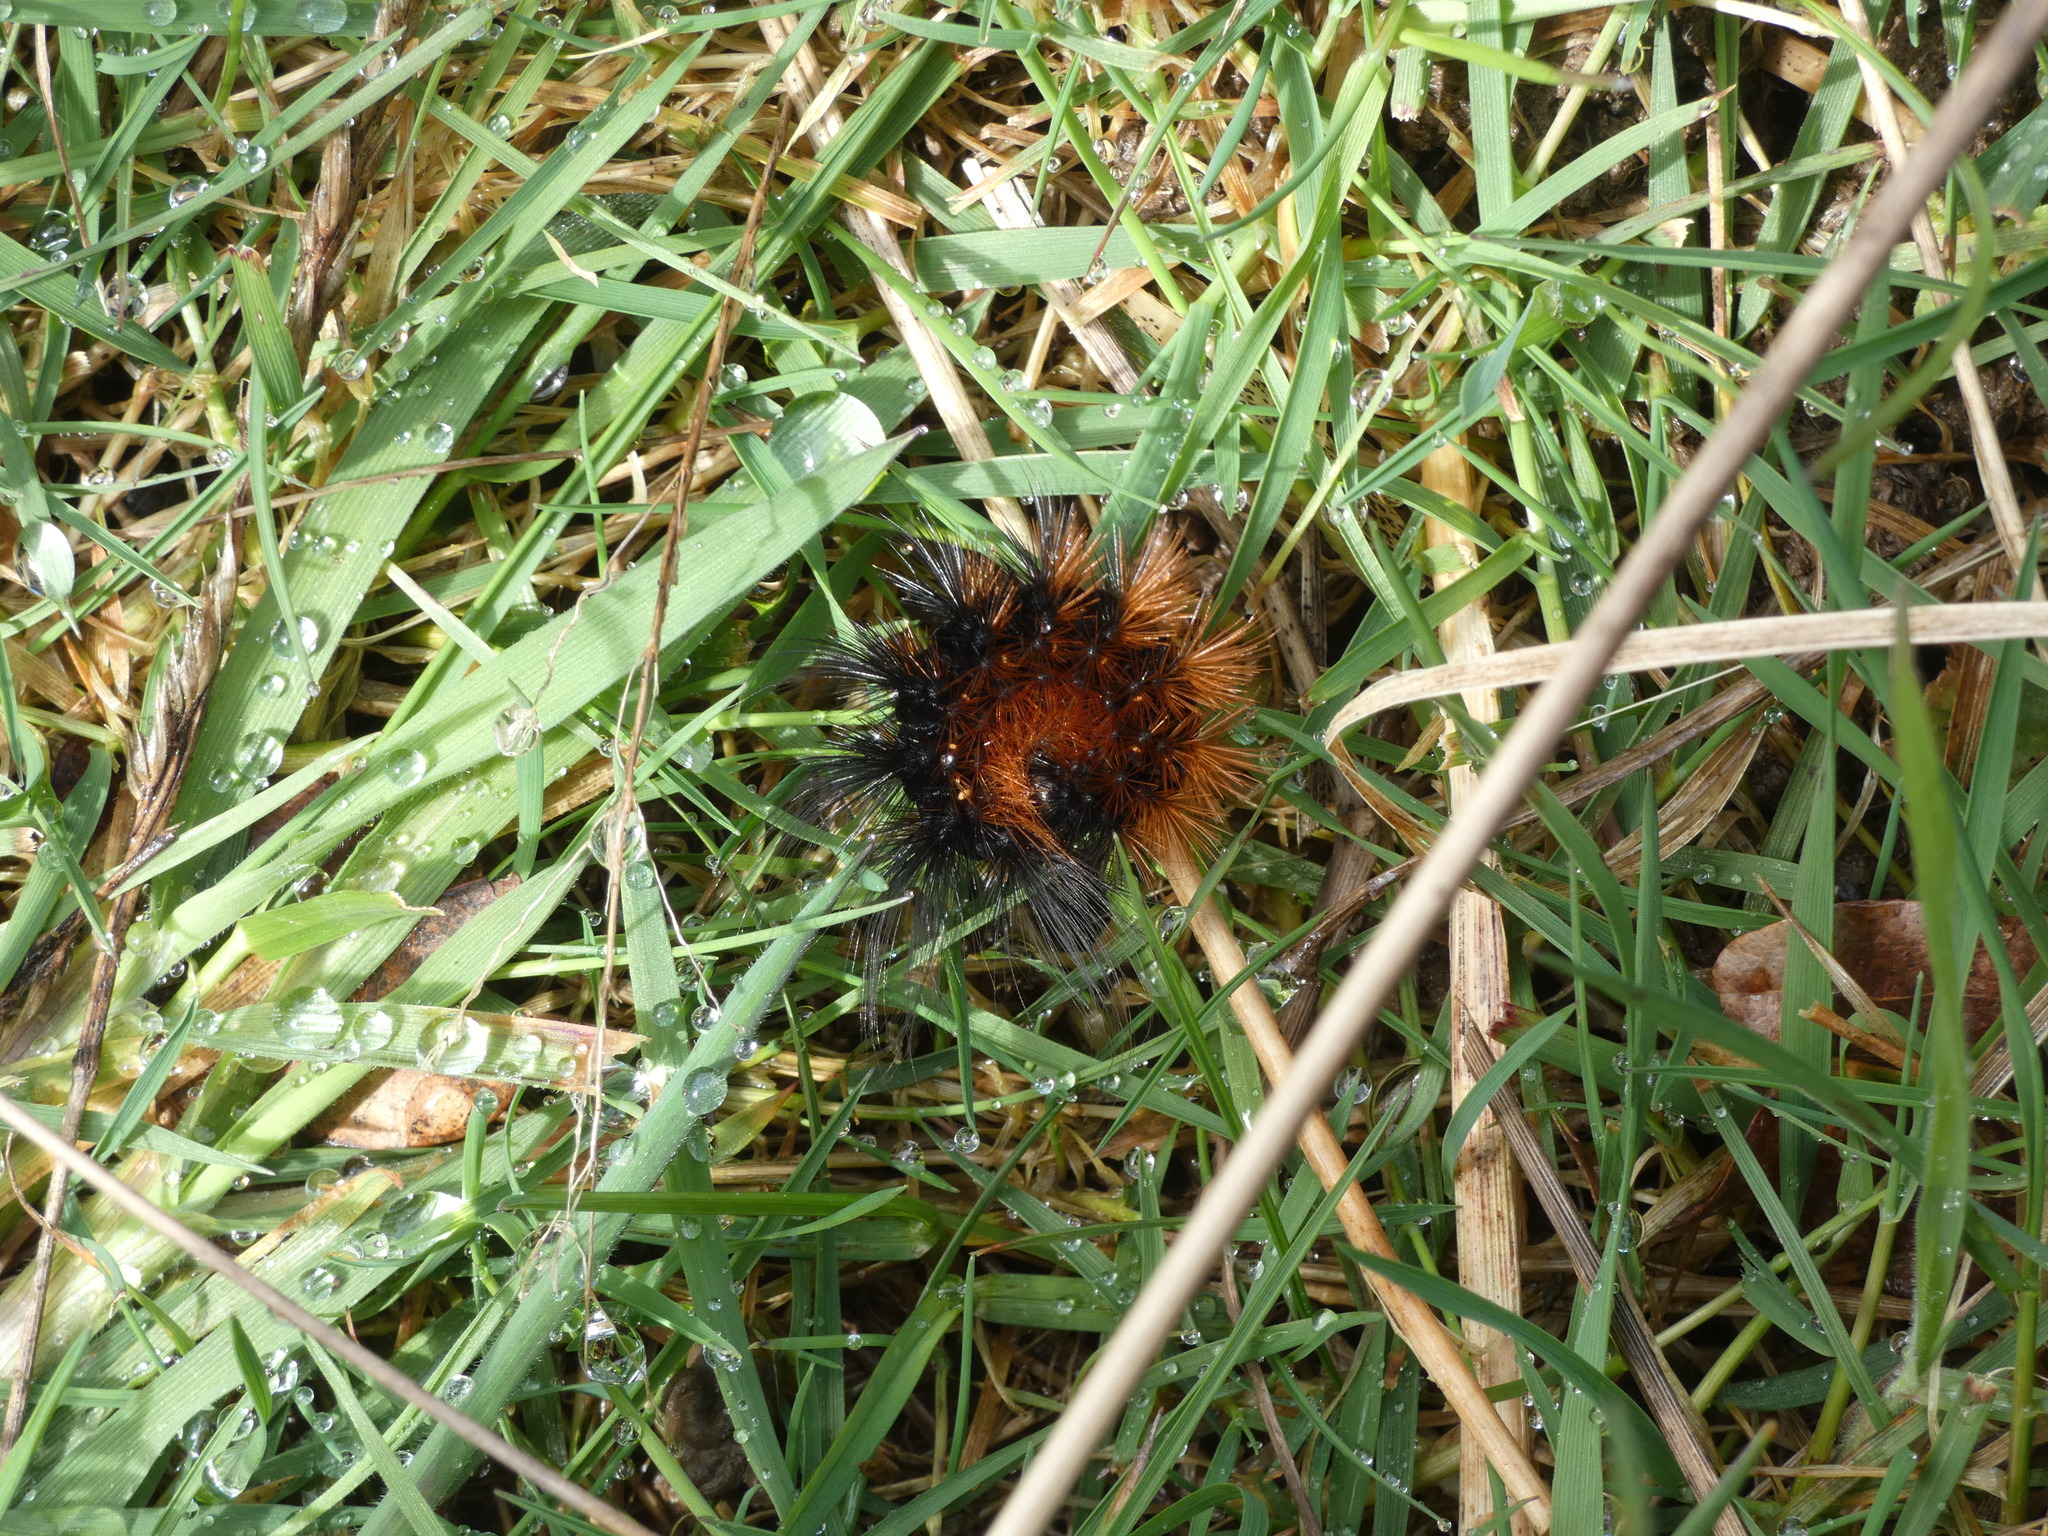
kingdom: Animalia
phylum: Arthropoda
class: Insecta
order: Lepidoptera
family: Erebidae
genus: Arctia
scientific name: Arctia caja
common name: Garden tiger
